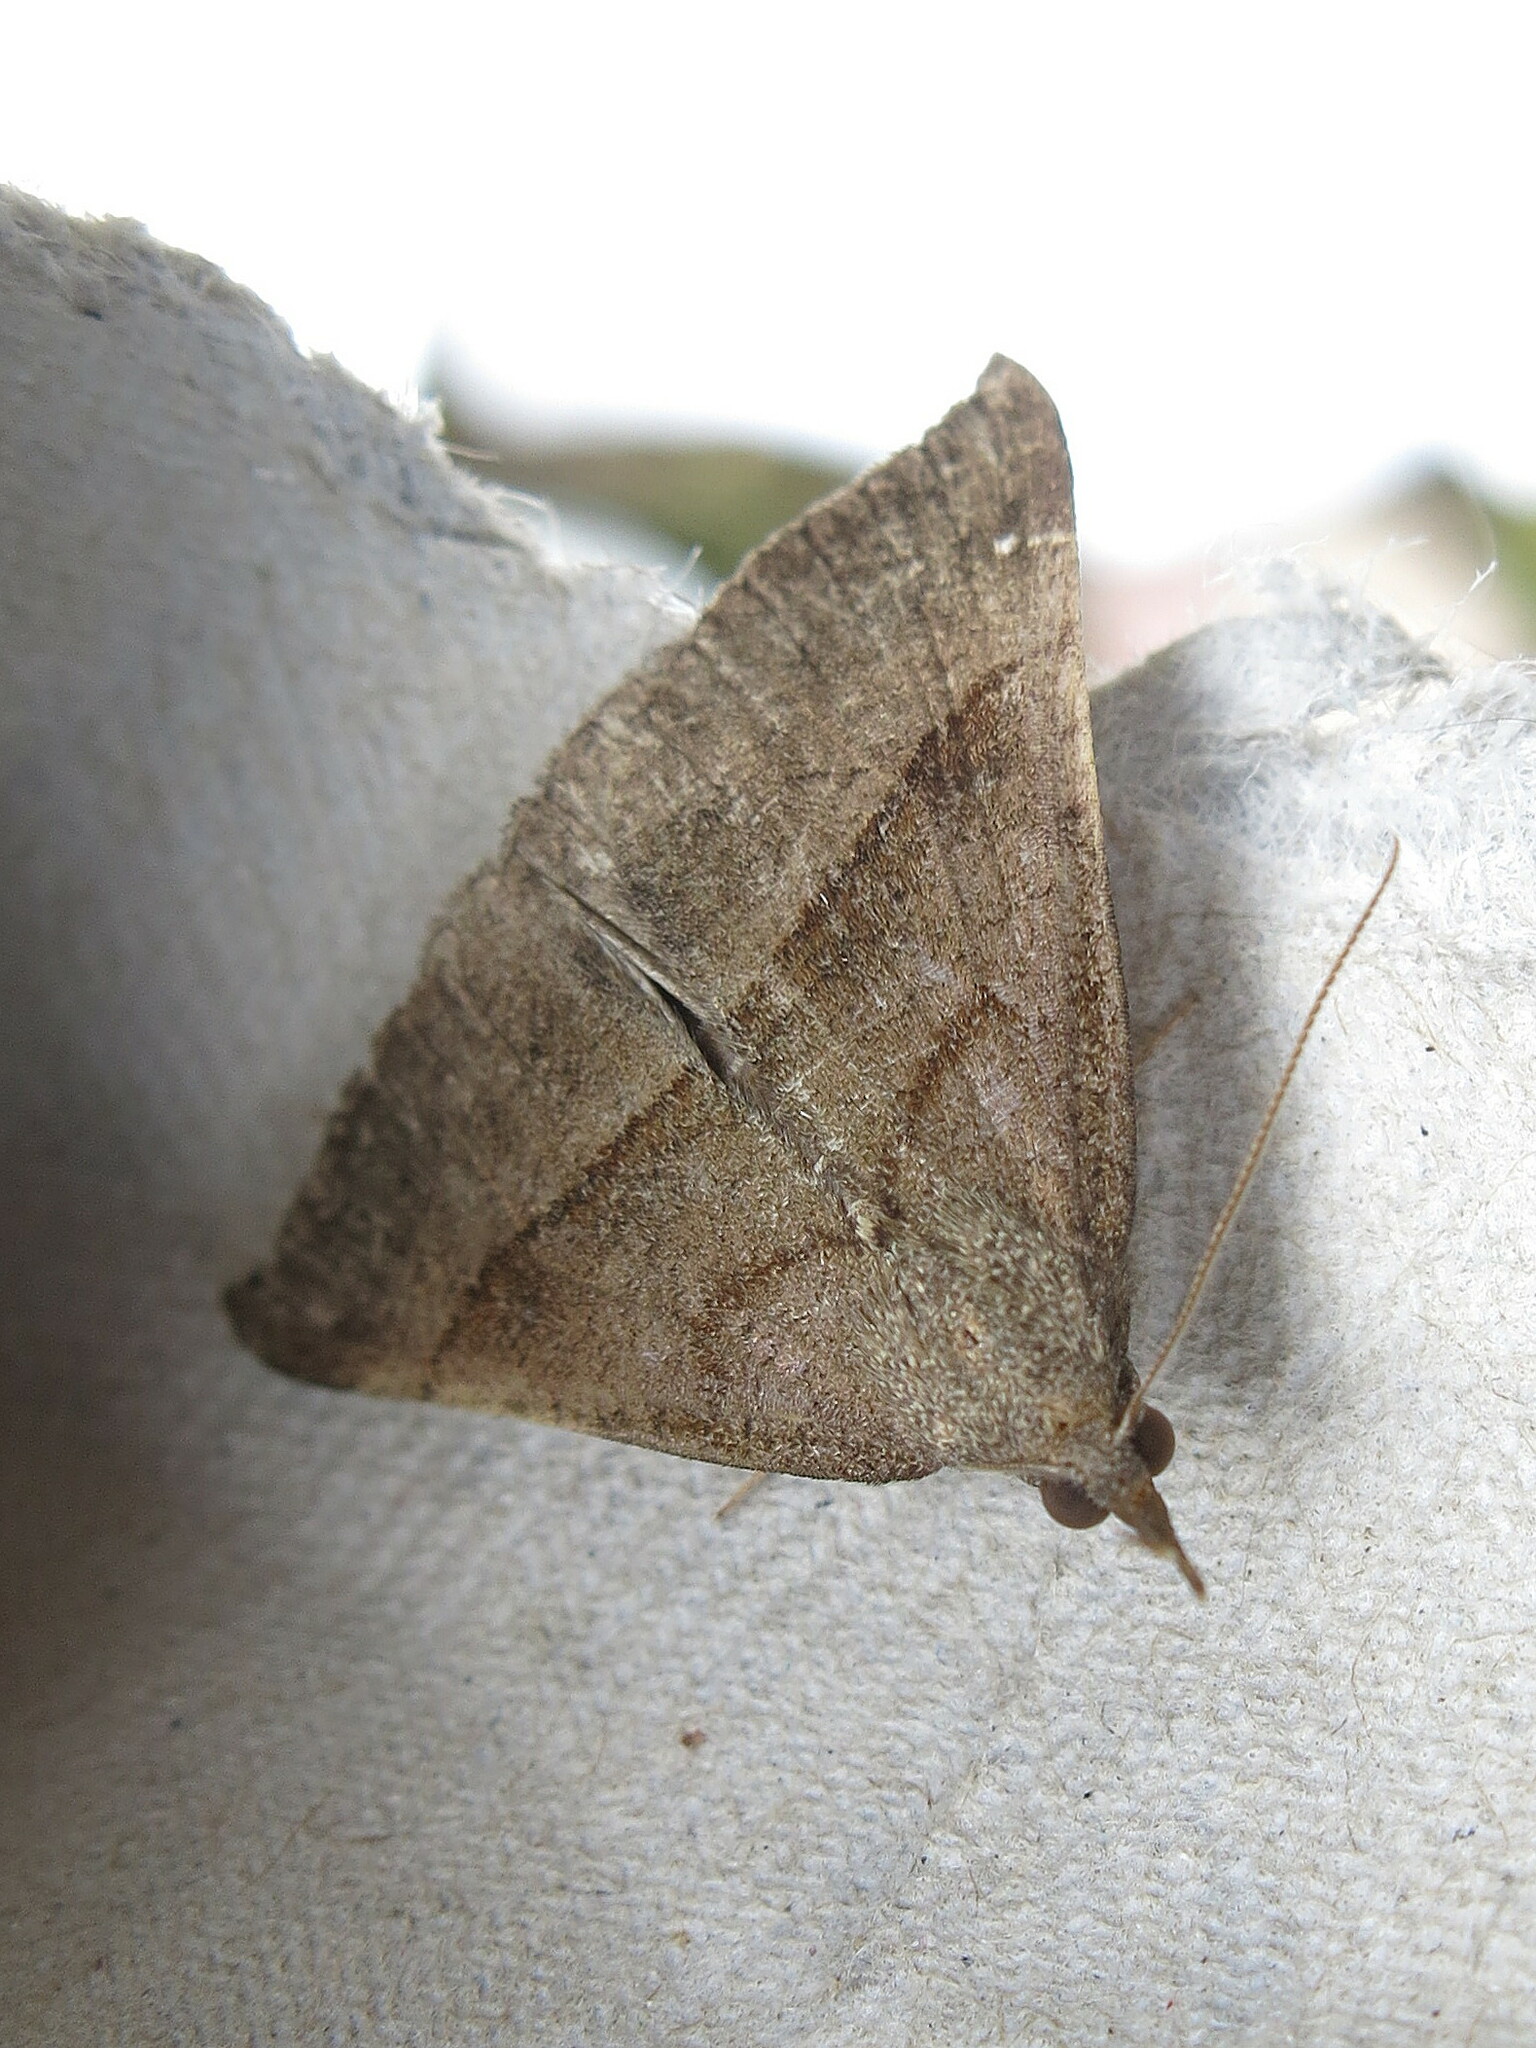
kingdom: Animalia
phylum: Arthropoda
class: Insecta
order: Lepidoptera
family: Erebidae
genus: Hypena
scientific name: Hypena proboscidalis
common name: Snout
